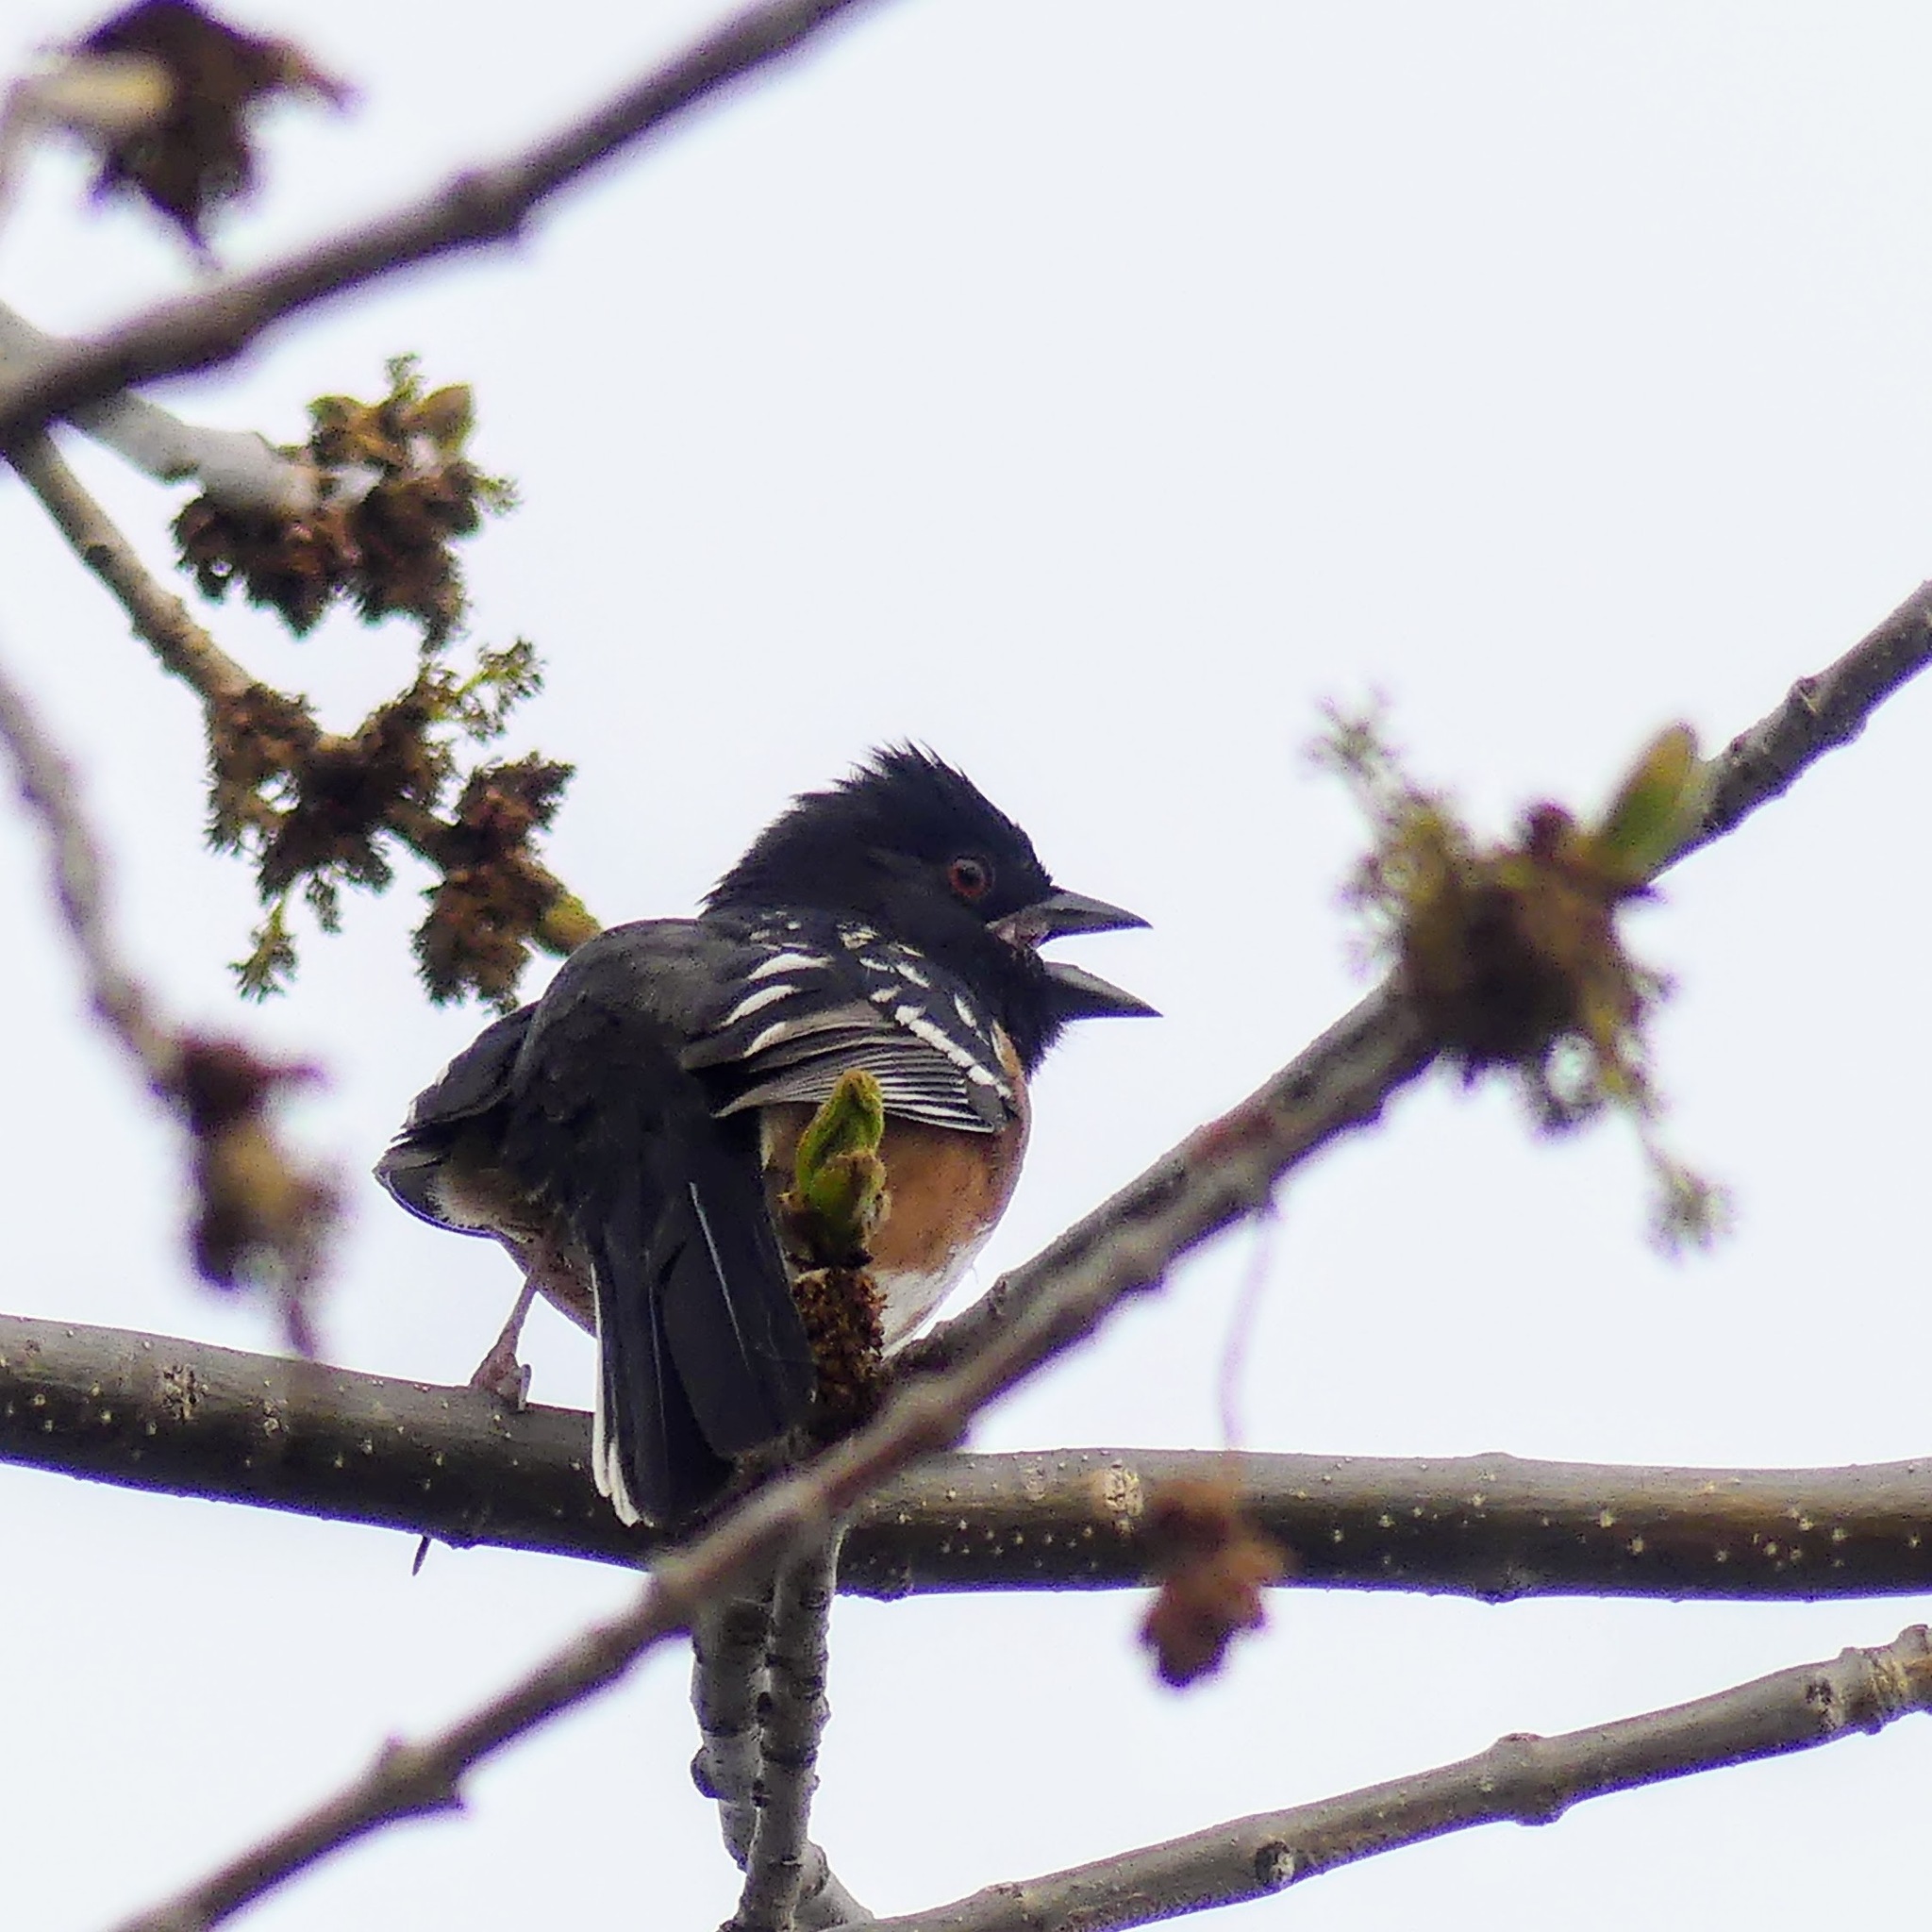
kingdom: Animalia
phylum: Chordata
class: Aves
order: Passeriformes
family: Passerellidae
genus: Pipilo
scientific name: Pipilo maculatus
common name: Spotted towhee
